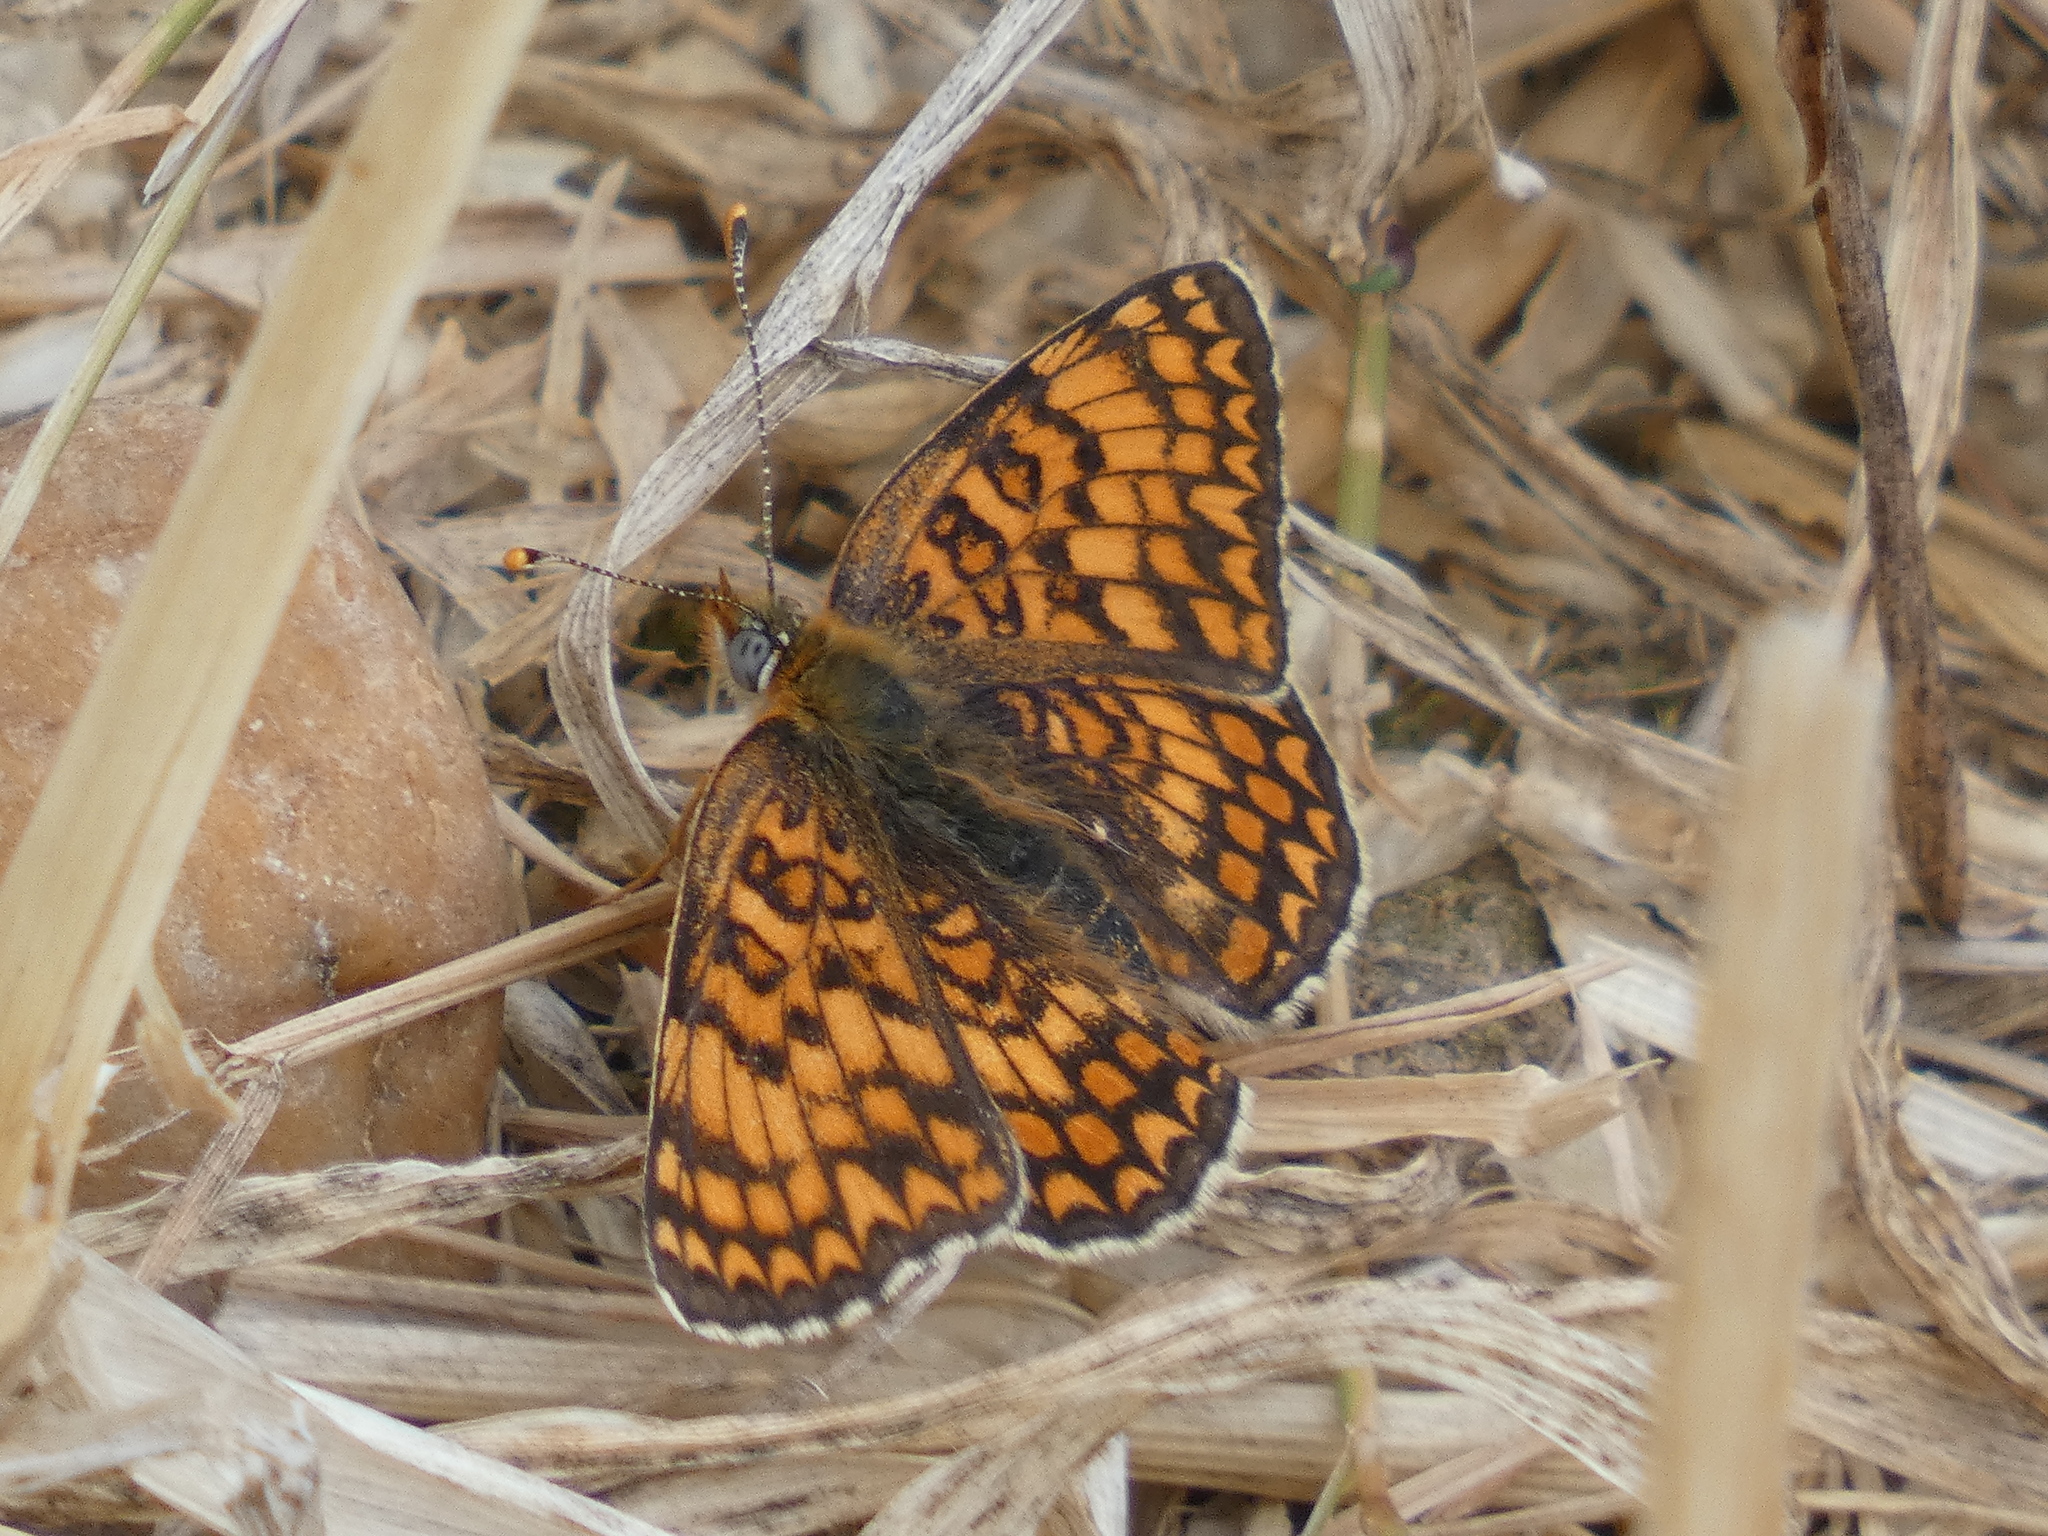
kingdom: Animalia
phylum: Arthropoda
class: Insecta
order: Lepidoptera
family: Nymphalidae
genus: Melitaea
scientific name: Melitaea phoebe
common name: Knapweed fritillary
